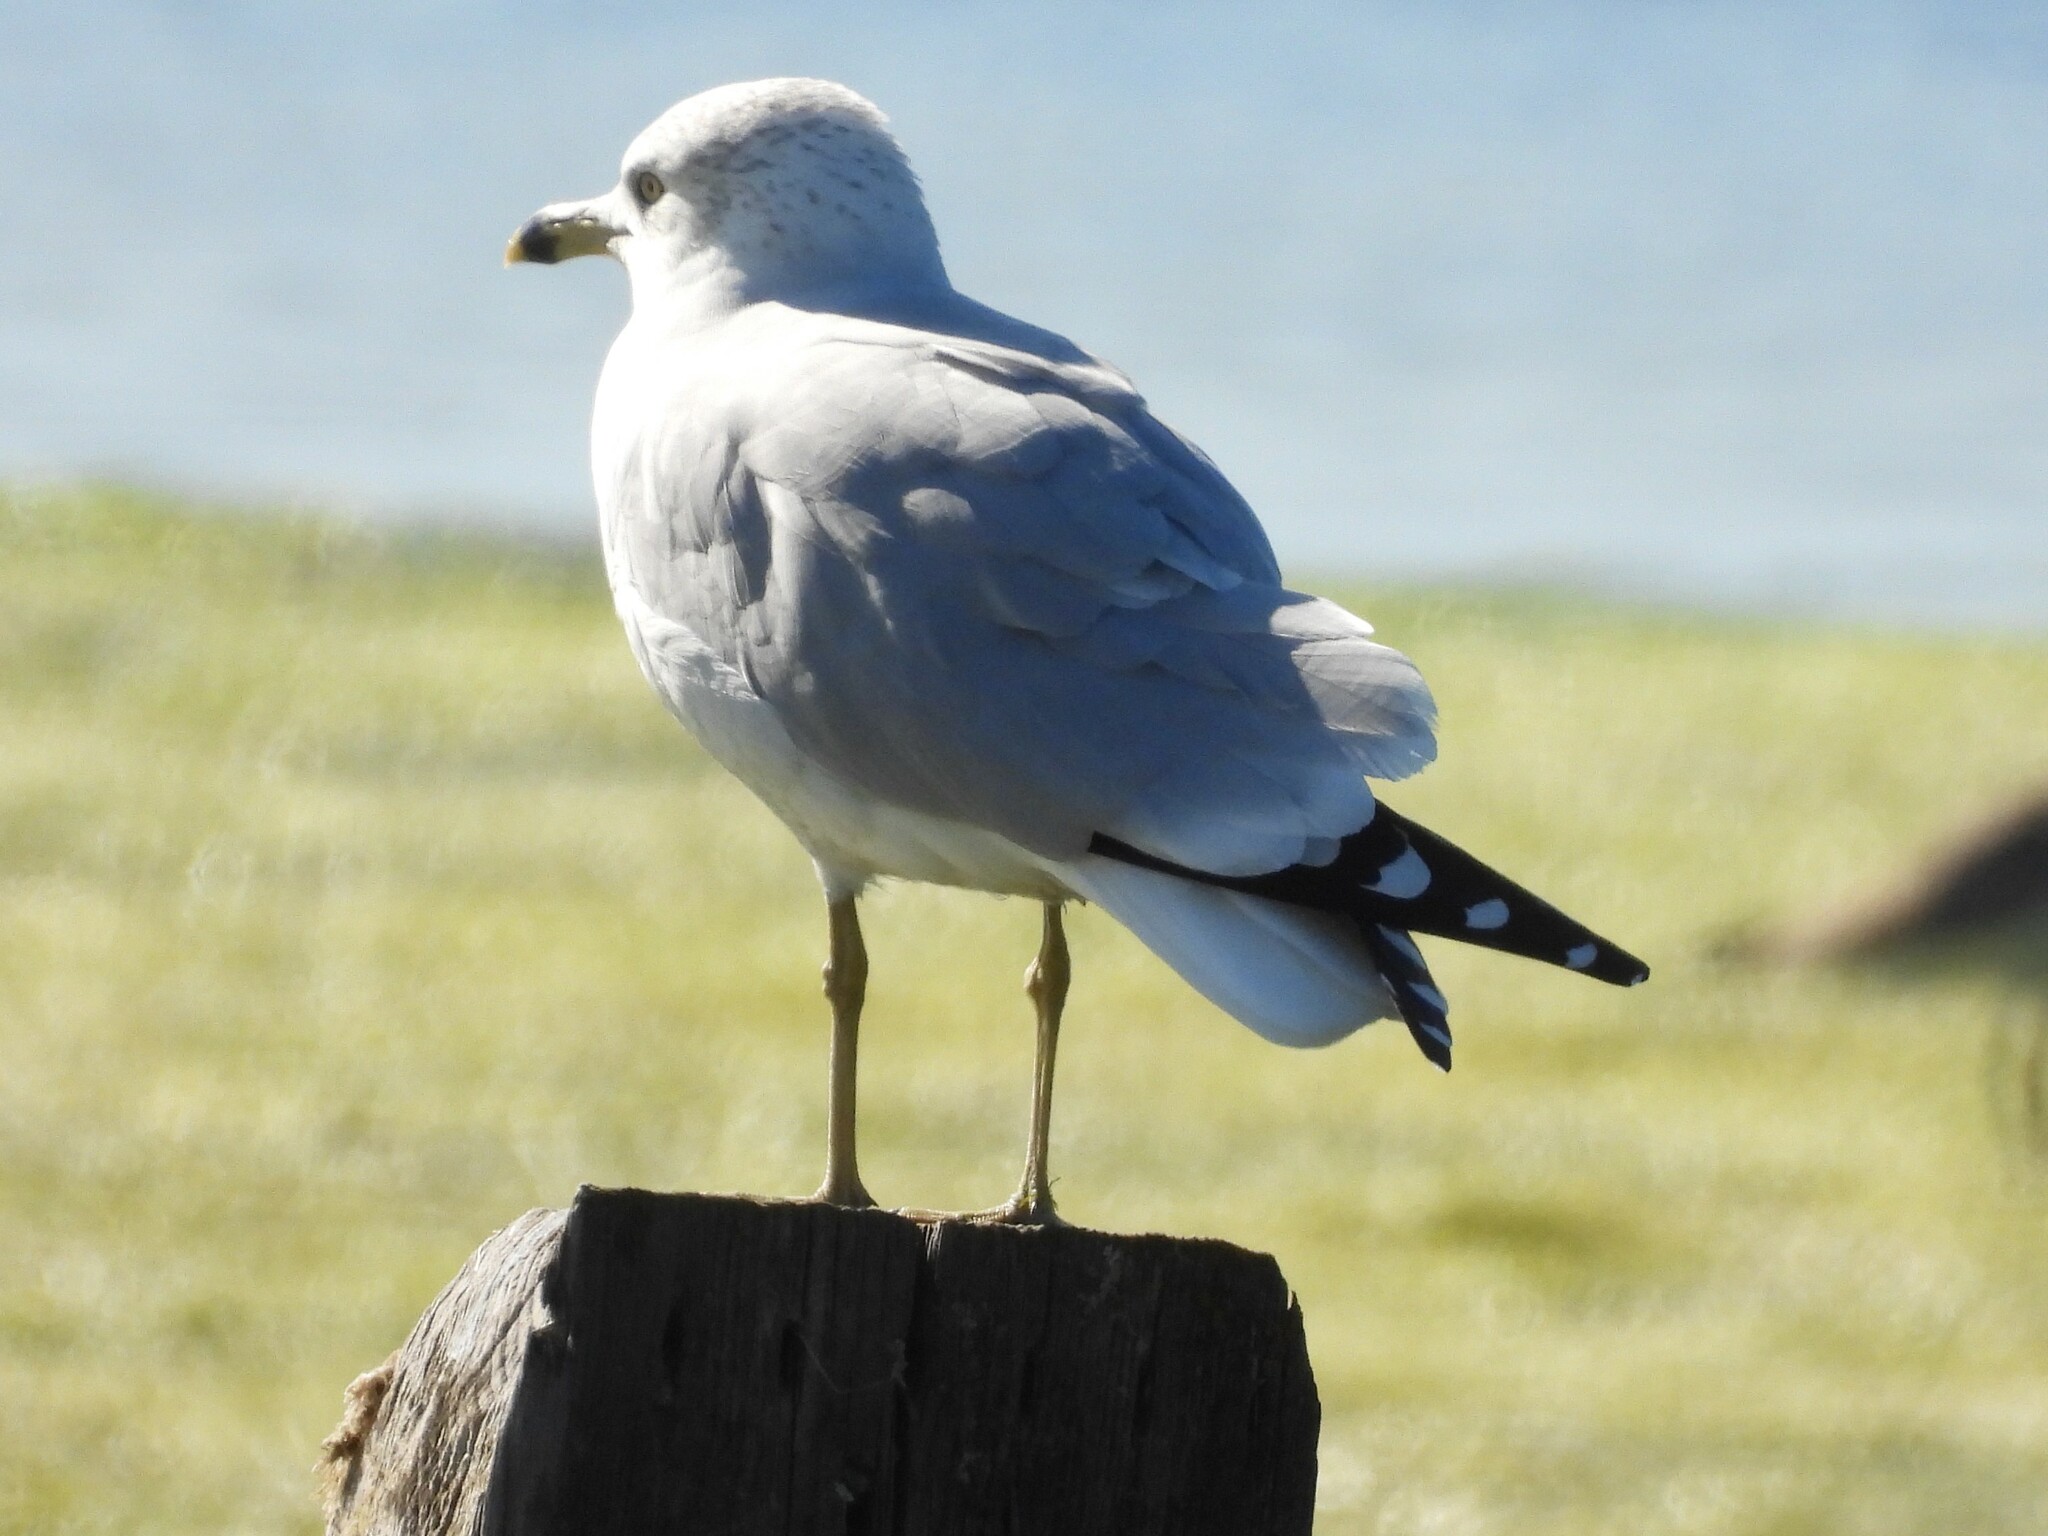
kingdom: Animalia
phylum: Chordata
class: Aves
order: Charadriiformes
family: Laridae
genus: Larus
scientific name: Larus delawarensis
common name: Ring-billed gull
